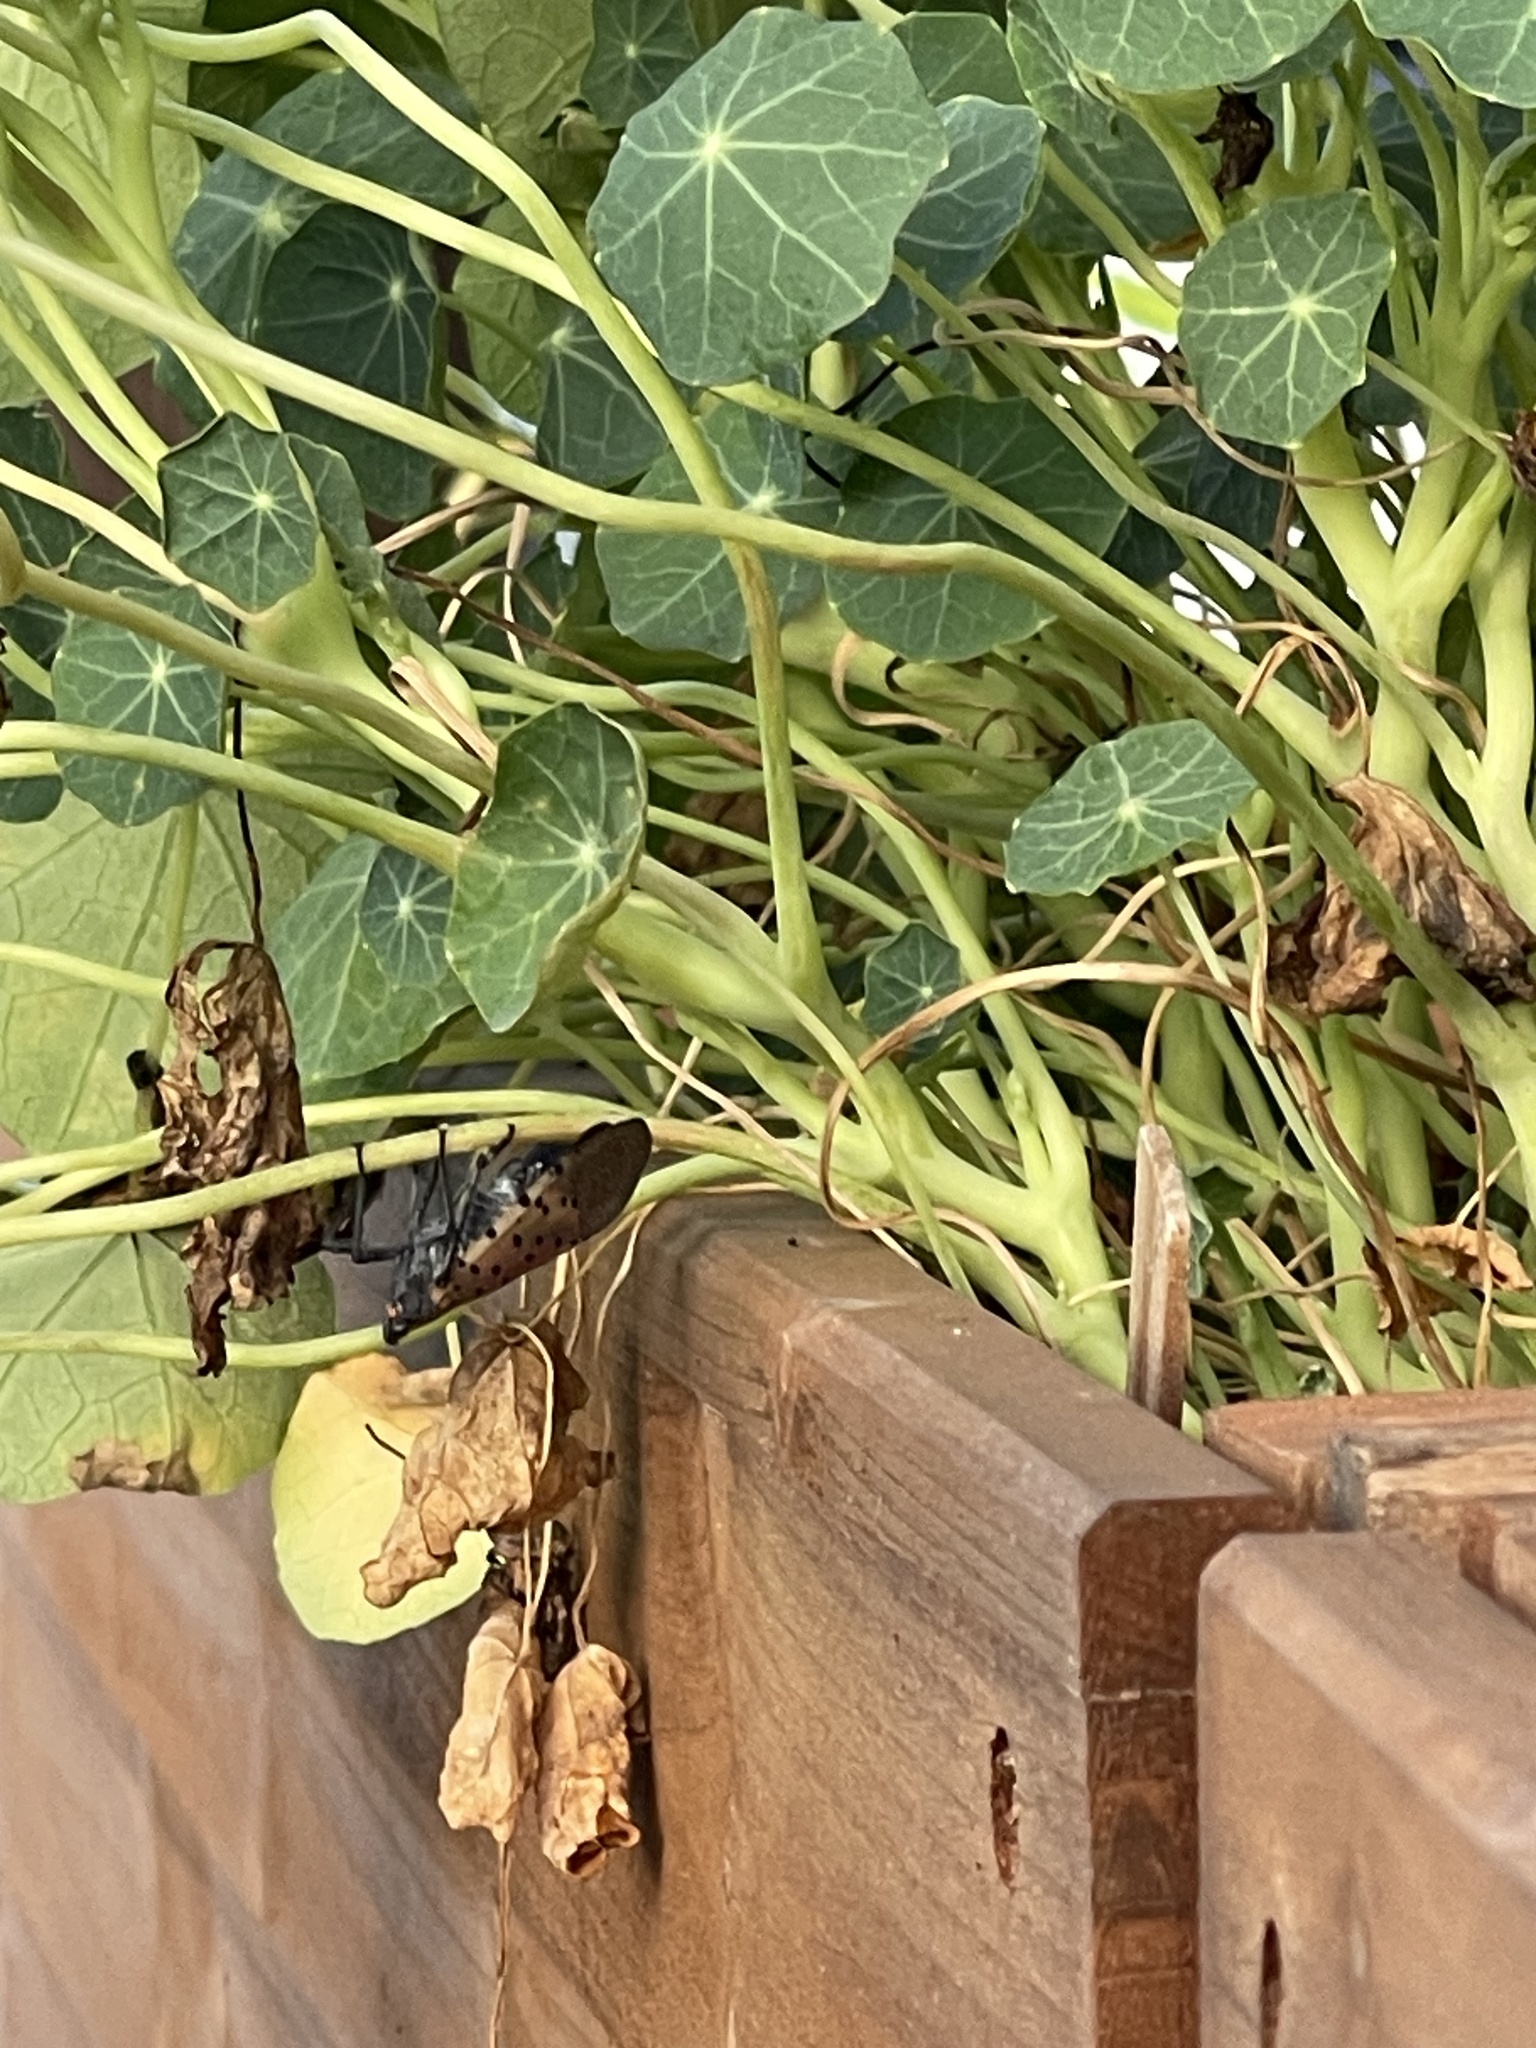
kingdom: Animalia
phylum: Arthropoda
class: Insecta
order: Hemiptera
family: Fulgoridae
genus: Lycorma
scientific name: Lycorma delicatula
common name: Spotted lanternfly
